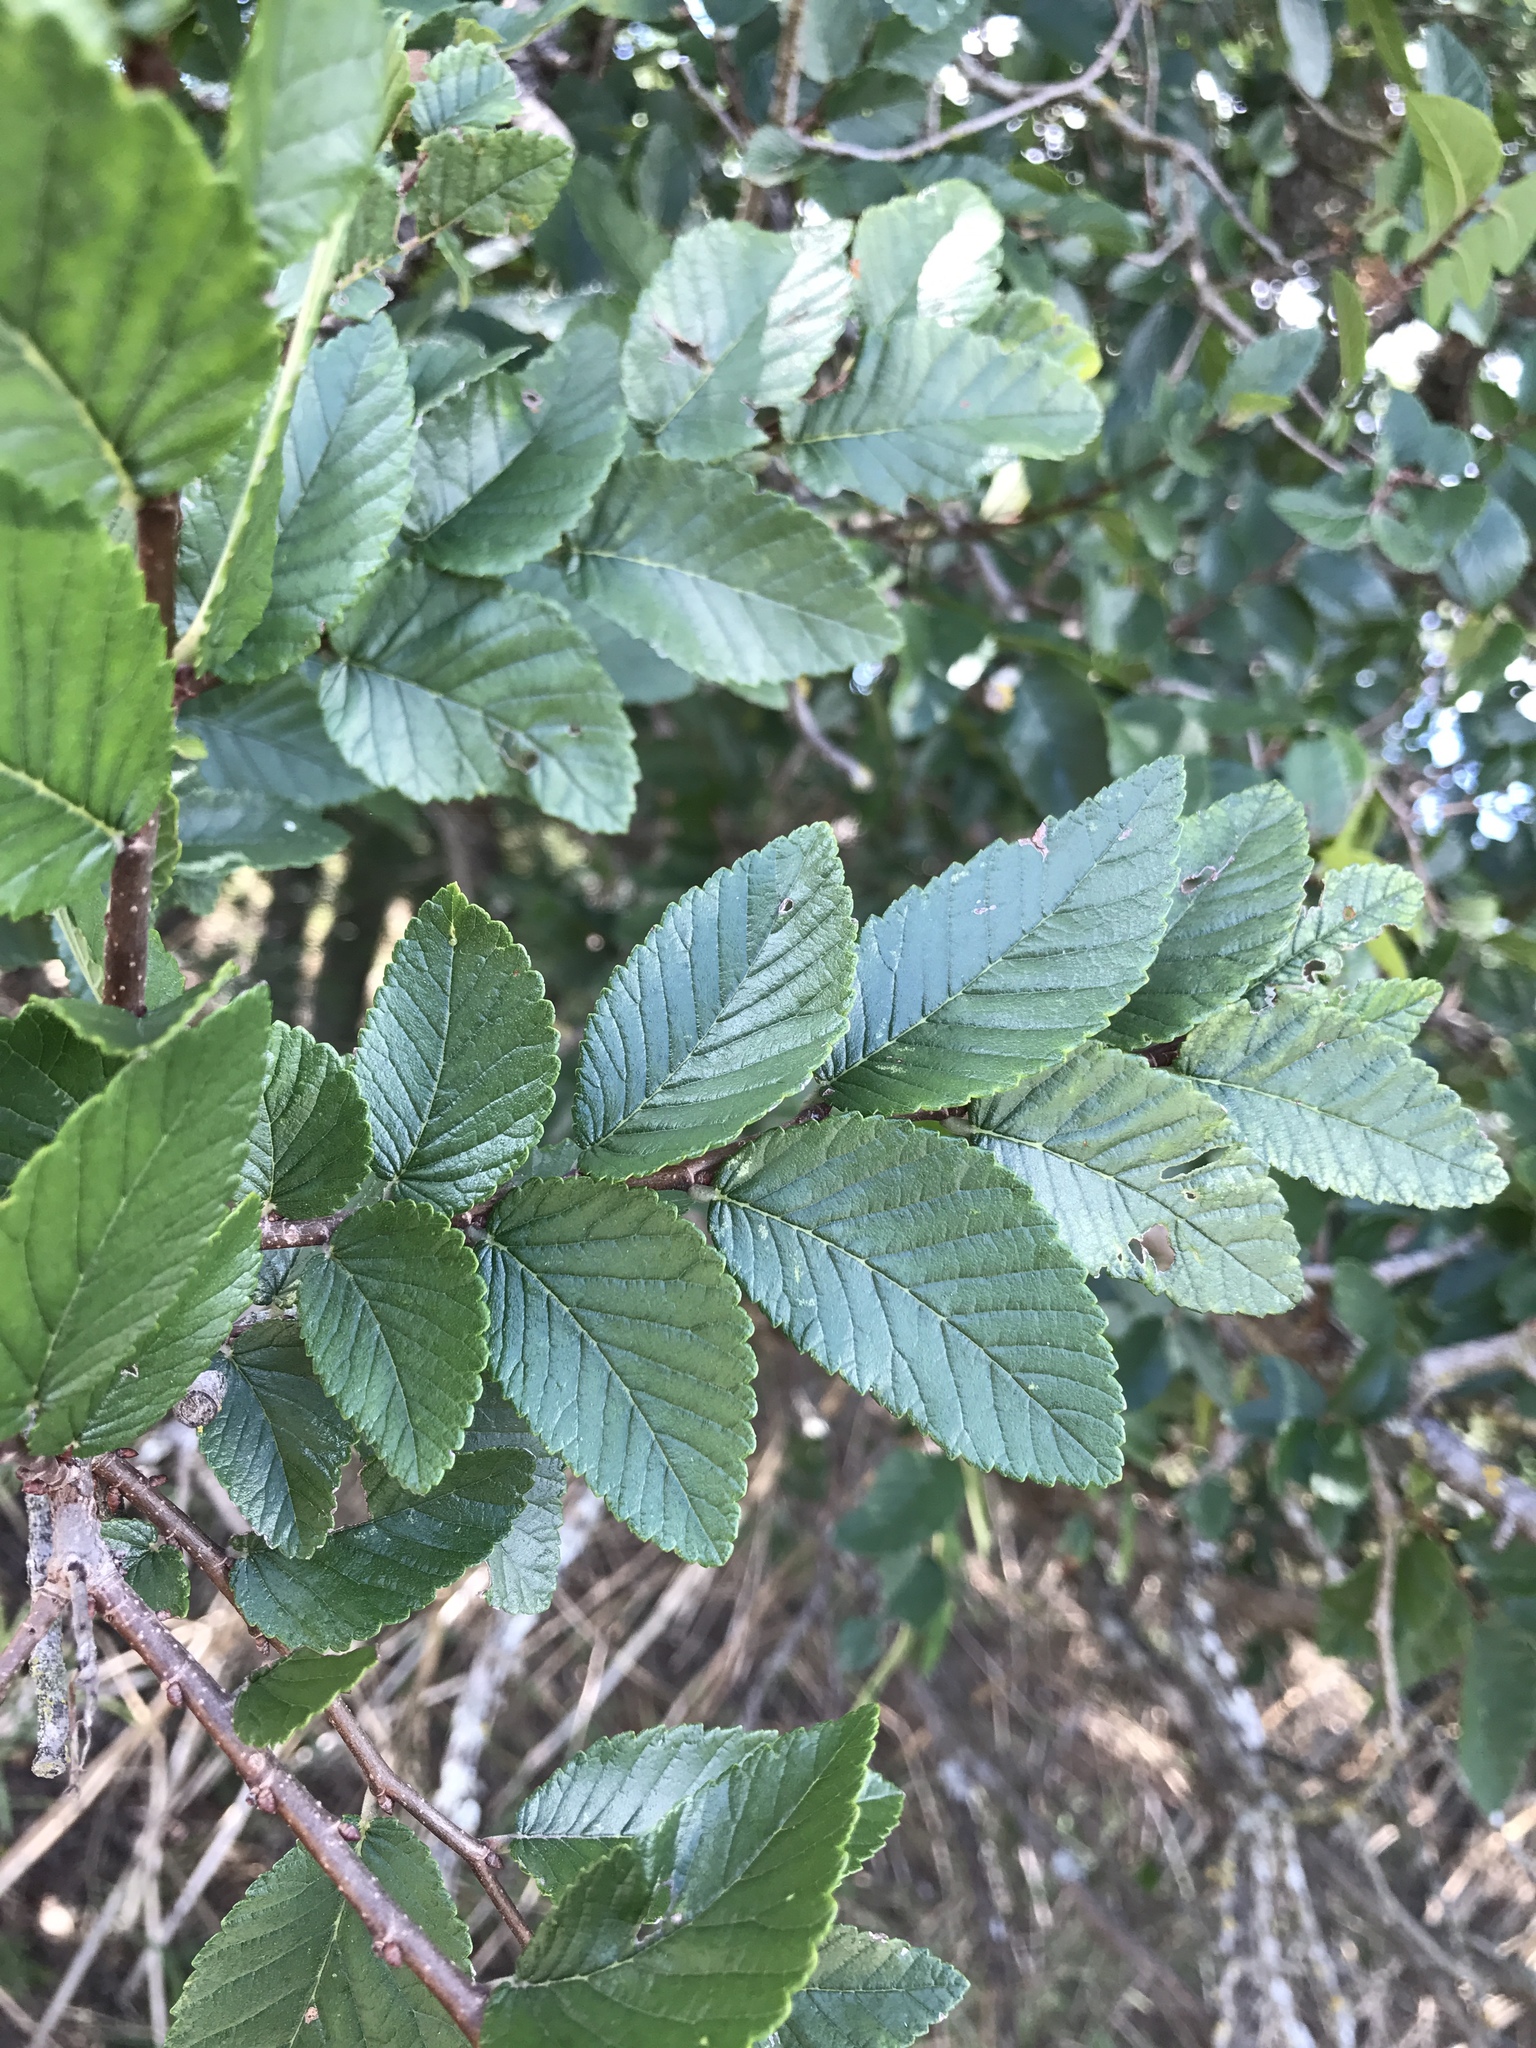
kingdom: Plantae
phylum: Tracheophyta
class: Magnoliopsida
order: Rosales
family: Ulmaceae
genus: Ulmus
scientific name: Ulmus crassifolia
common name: Basket elm
